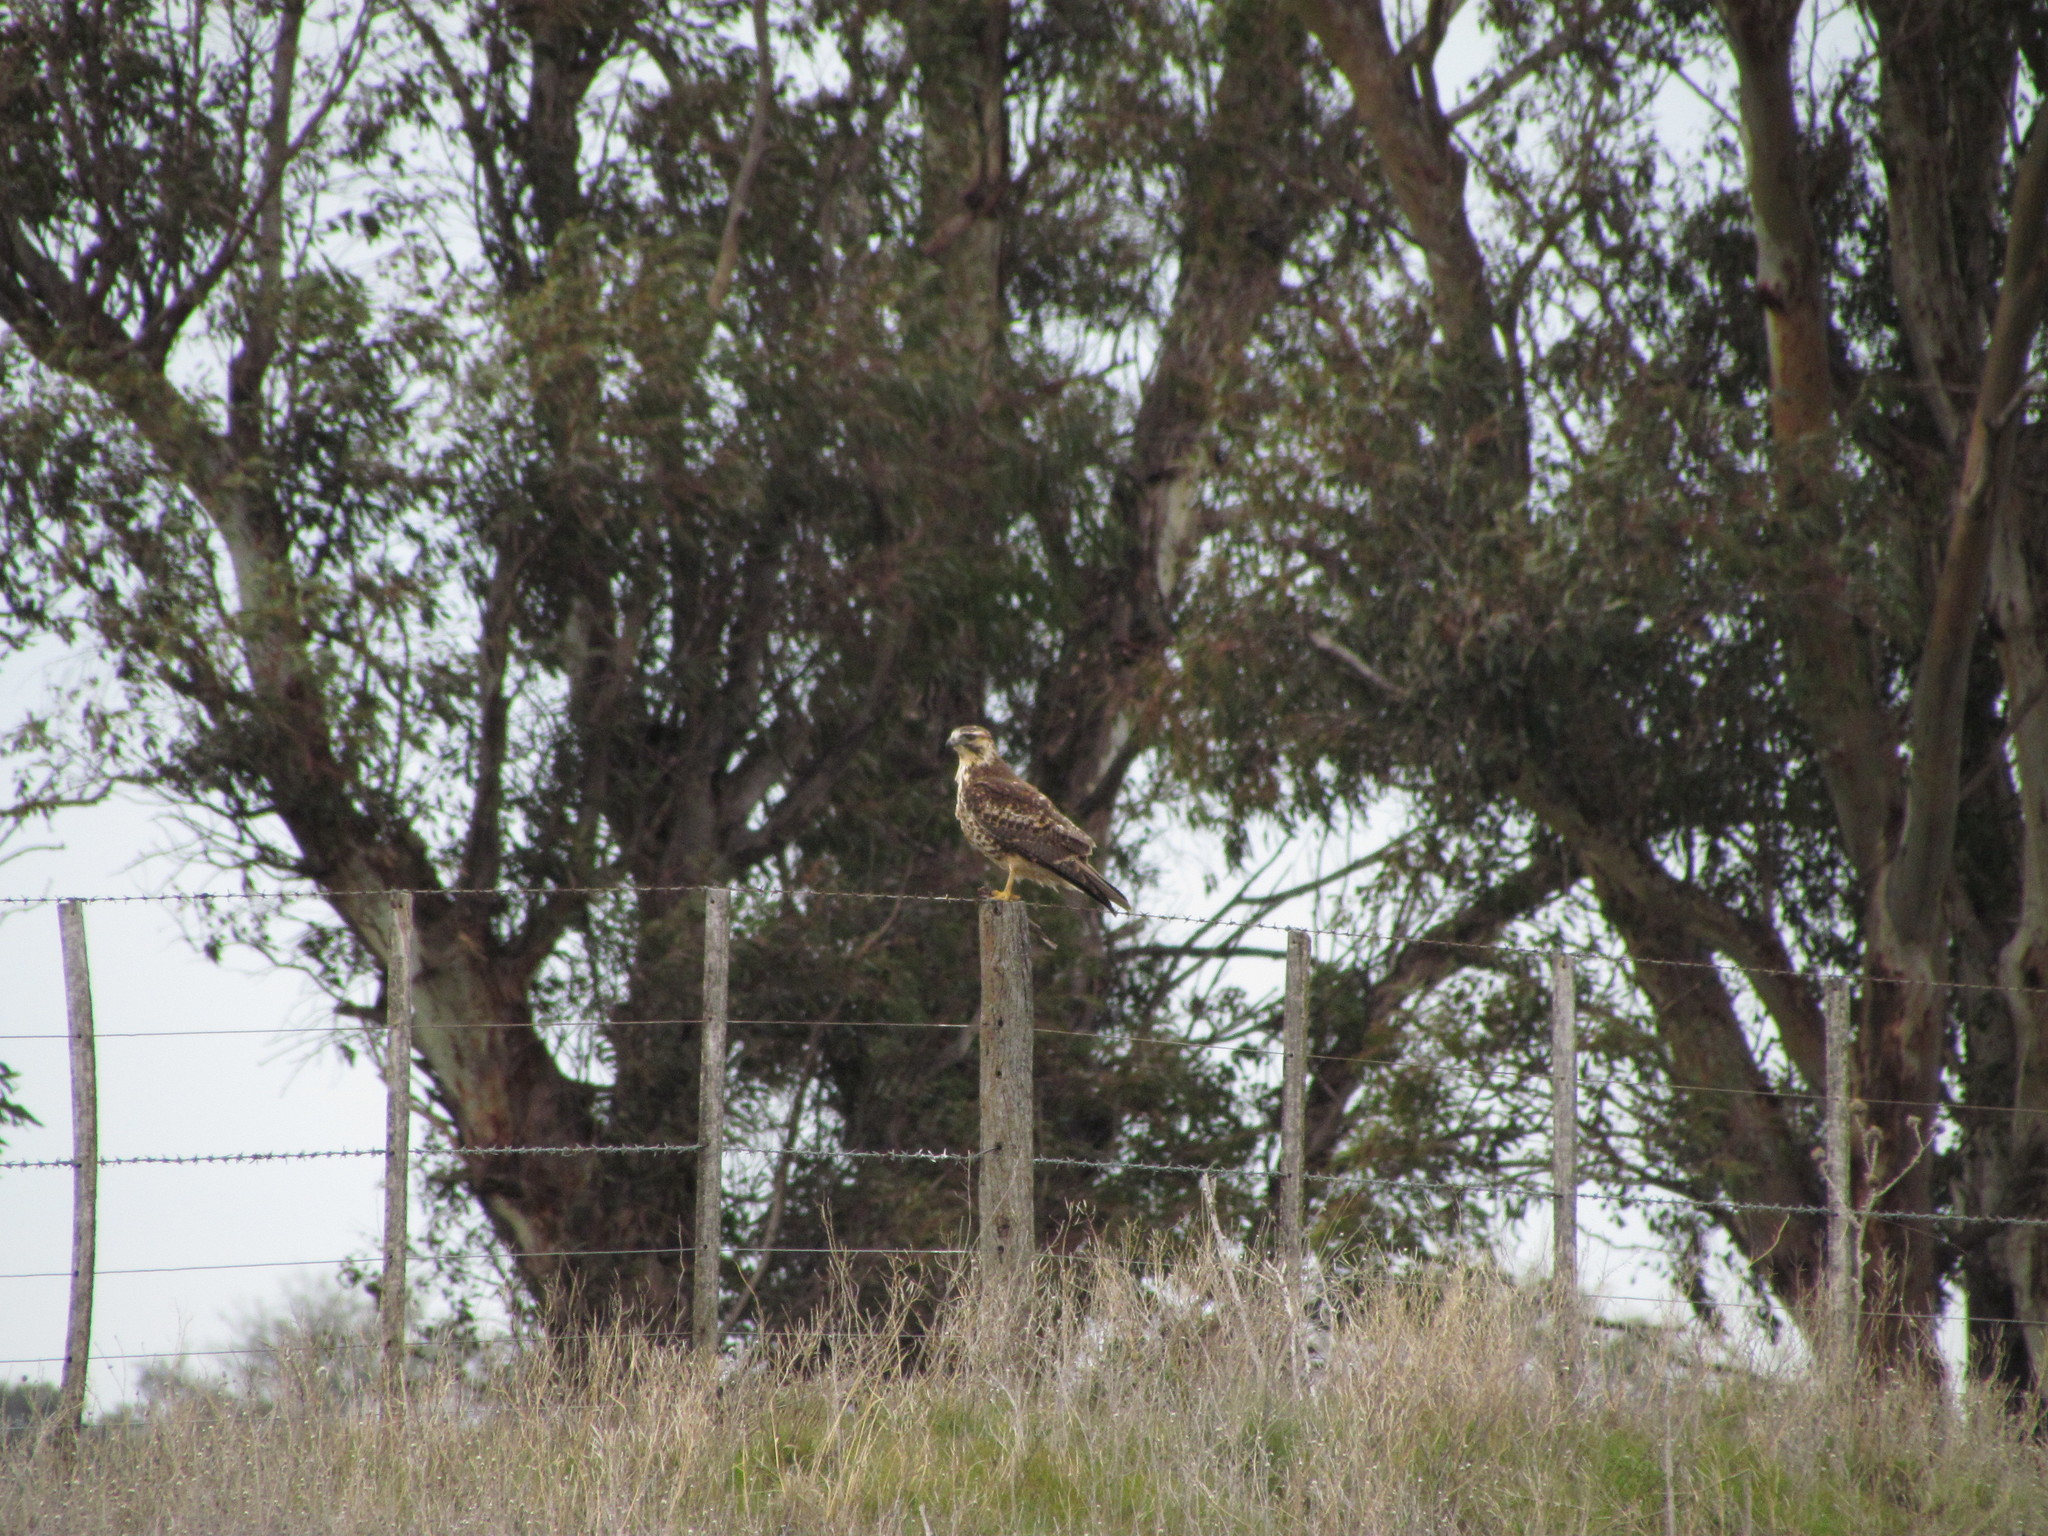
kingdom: Animalia
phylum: Chordata
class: Aves
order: Accipitriformes
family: Accipitridae
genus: Buteo
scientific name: Buteo polyosoma
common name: Variable hawk
